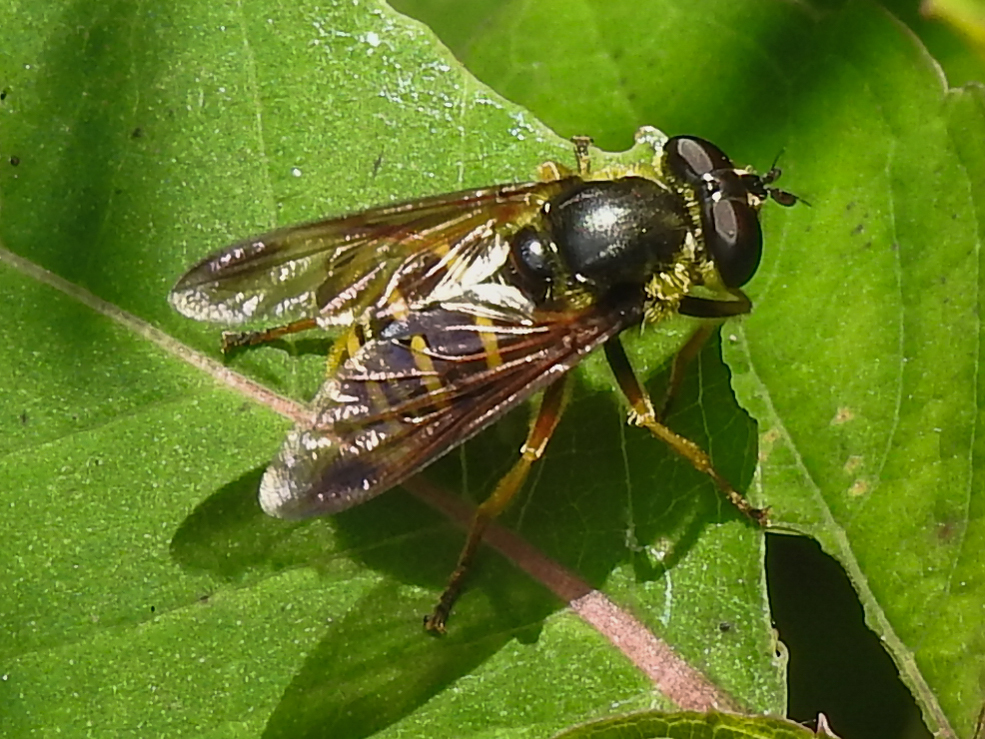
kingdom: Animalia
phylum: Arthropoda
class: Insecta
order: Diptera
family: Syrphidae
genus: Sericomyia
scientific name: Sericomyia chrysotoxoides
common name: Oblique-banded pond fly
